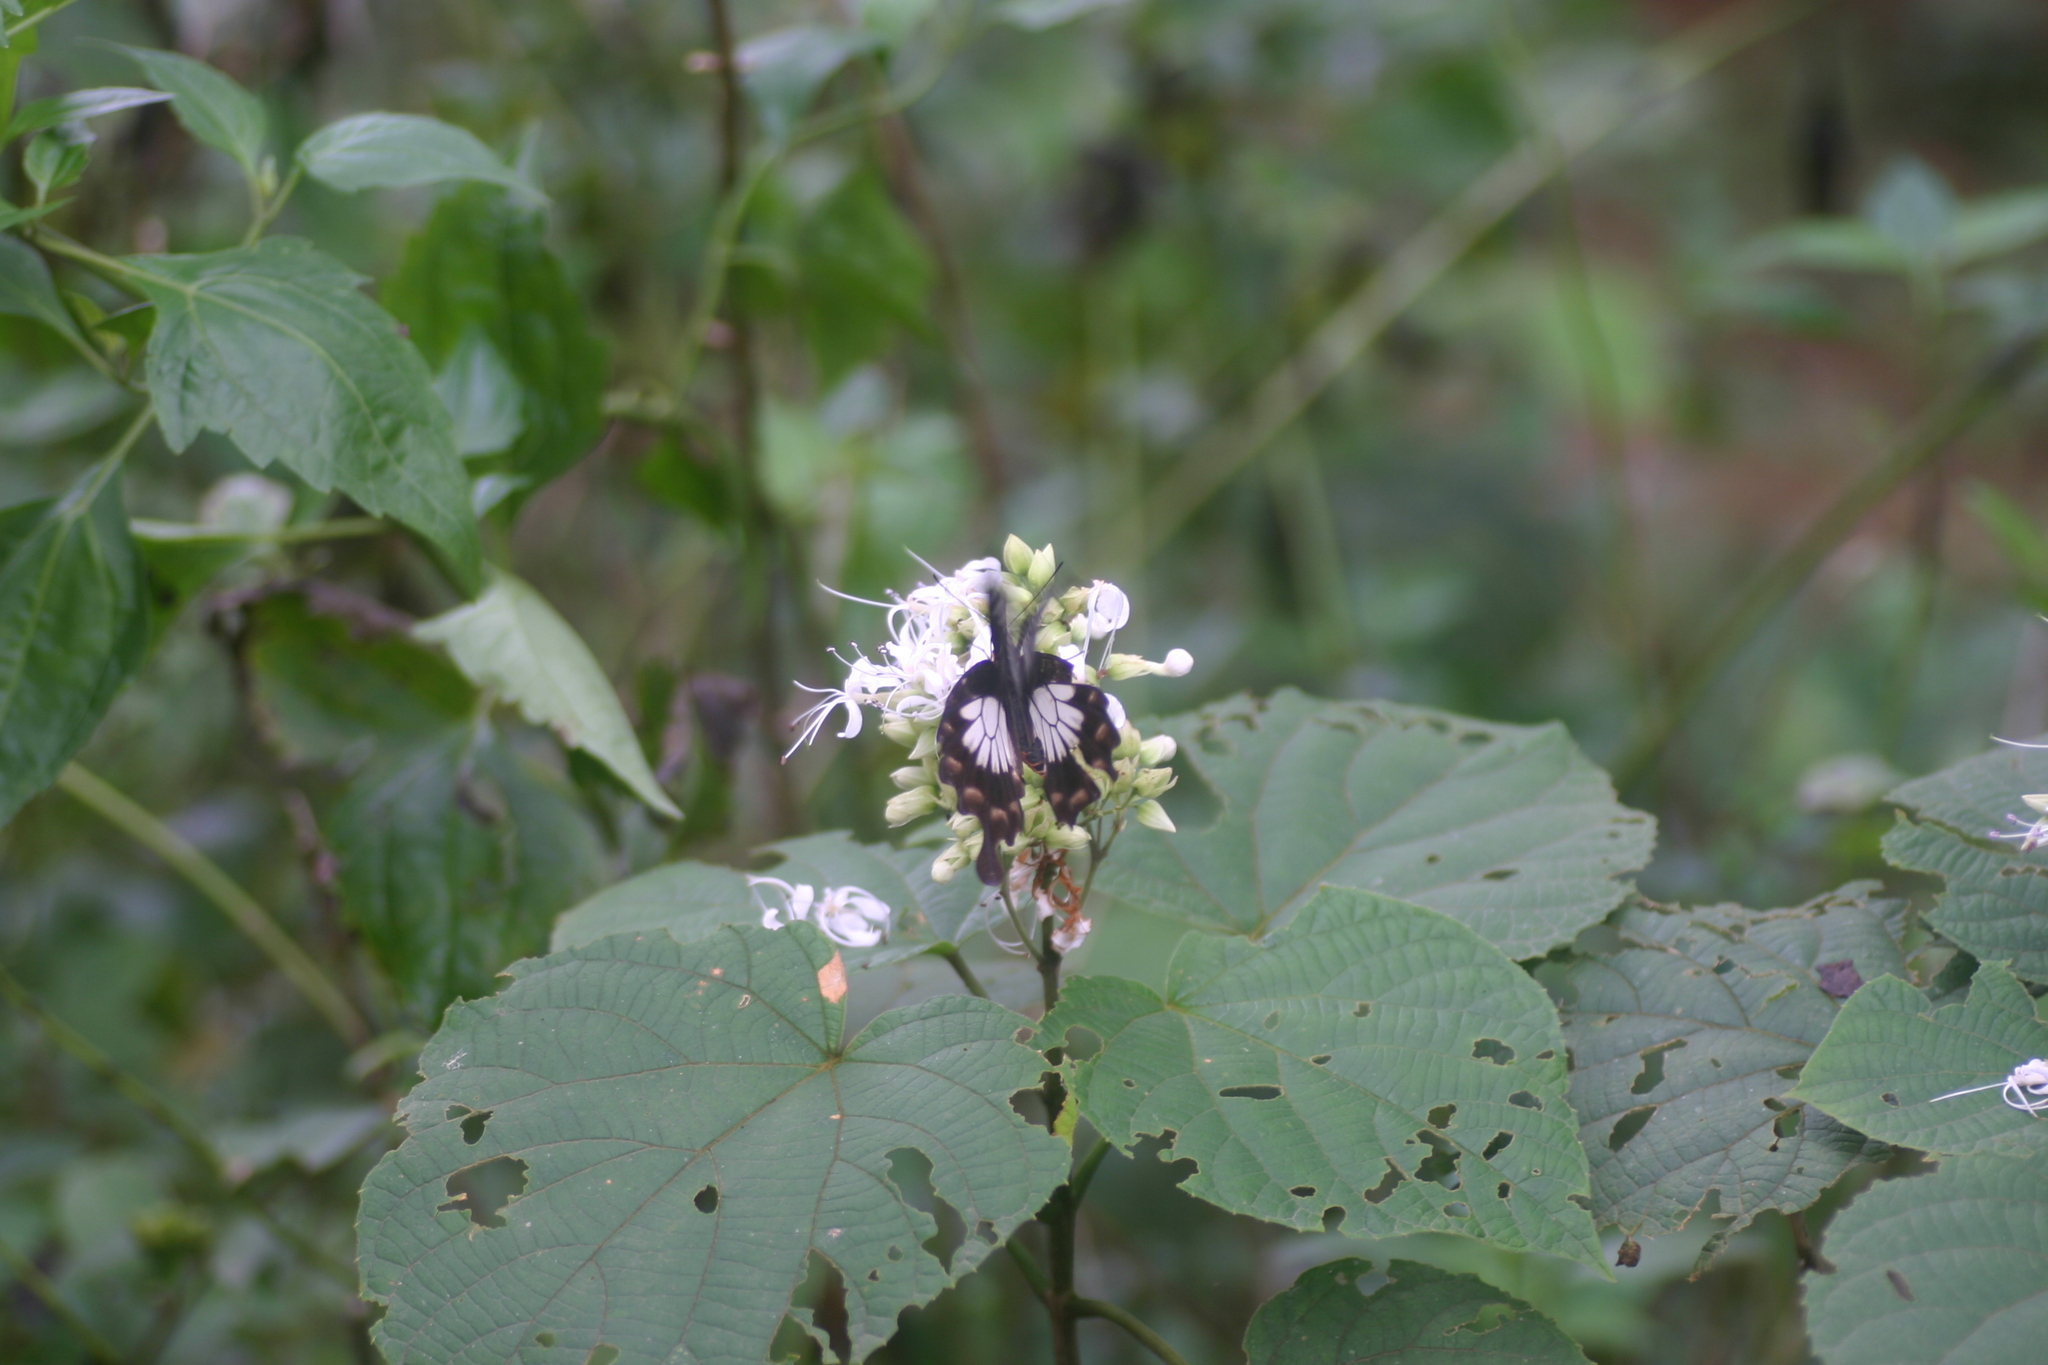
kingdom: Animalia
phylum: Arthropoda
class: Insecta
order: Lepidoptera
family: Papilionidae
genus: Pachliopta
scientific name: Pachliopta pandiyana
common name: Malabar rose
